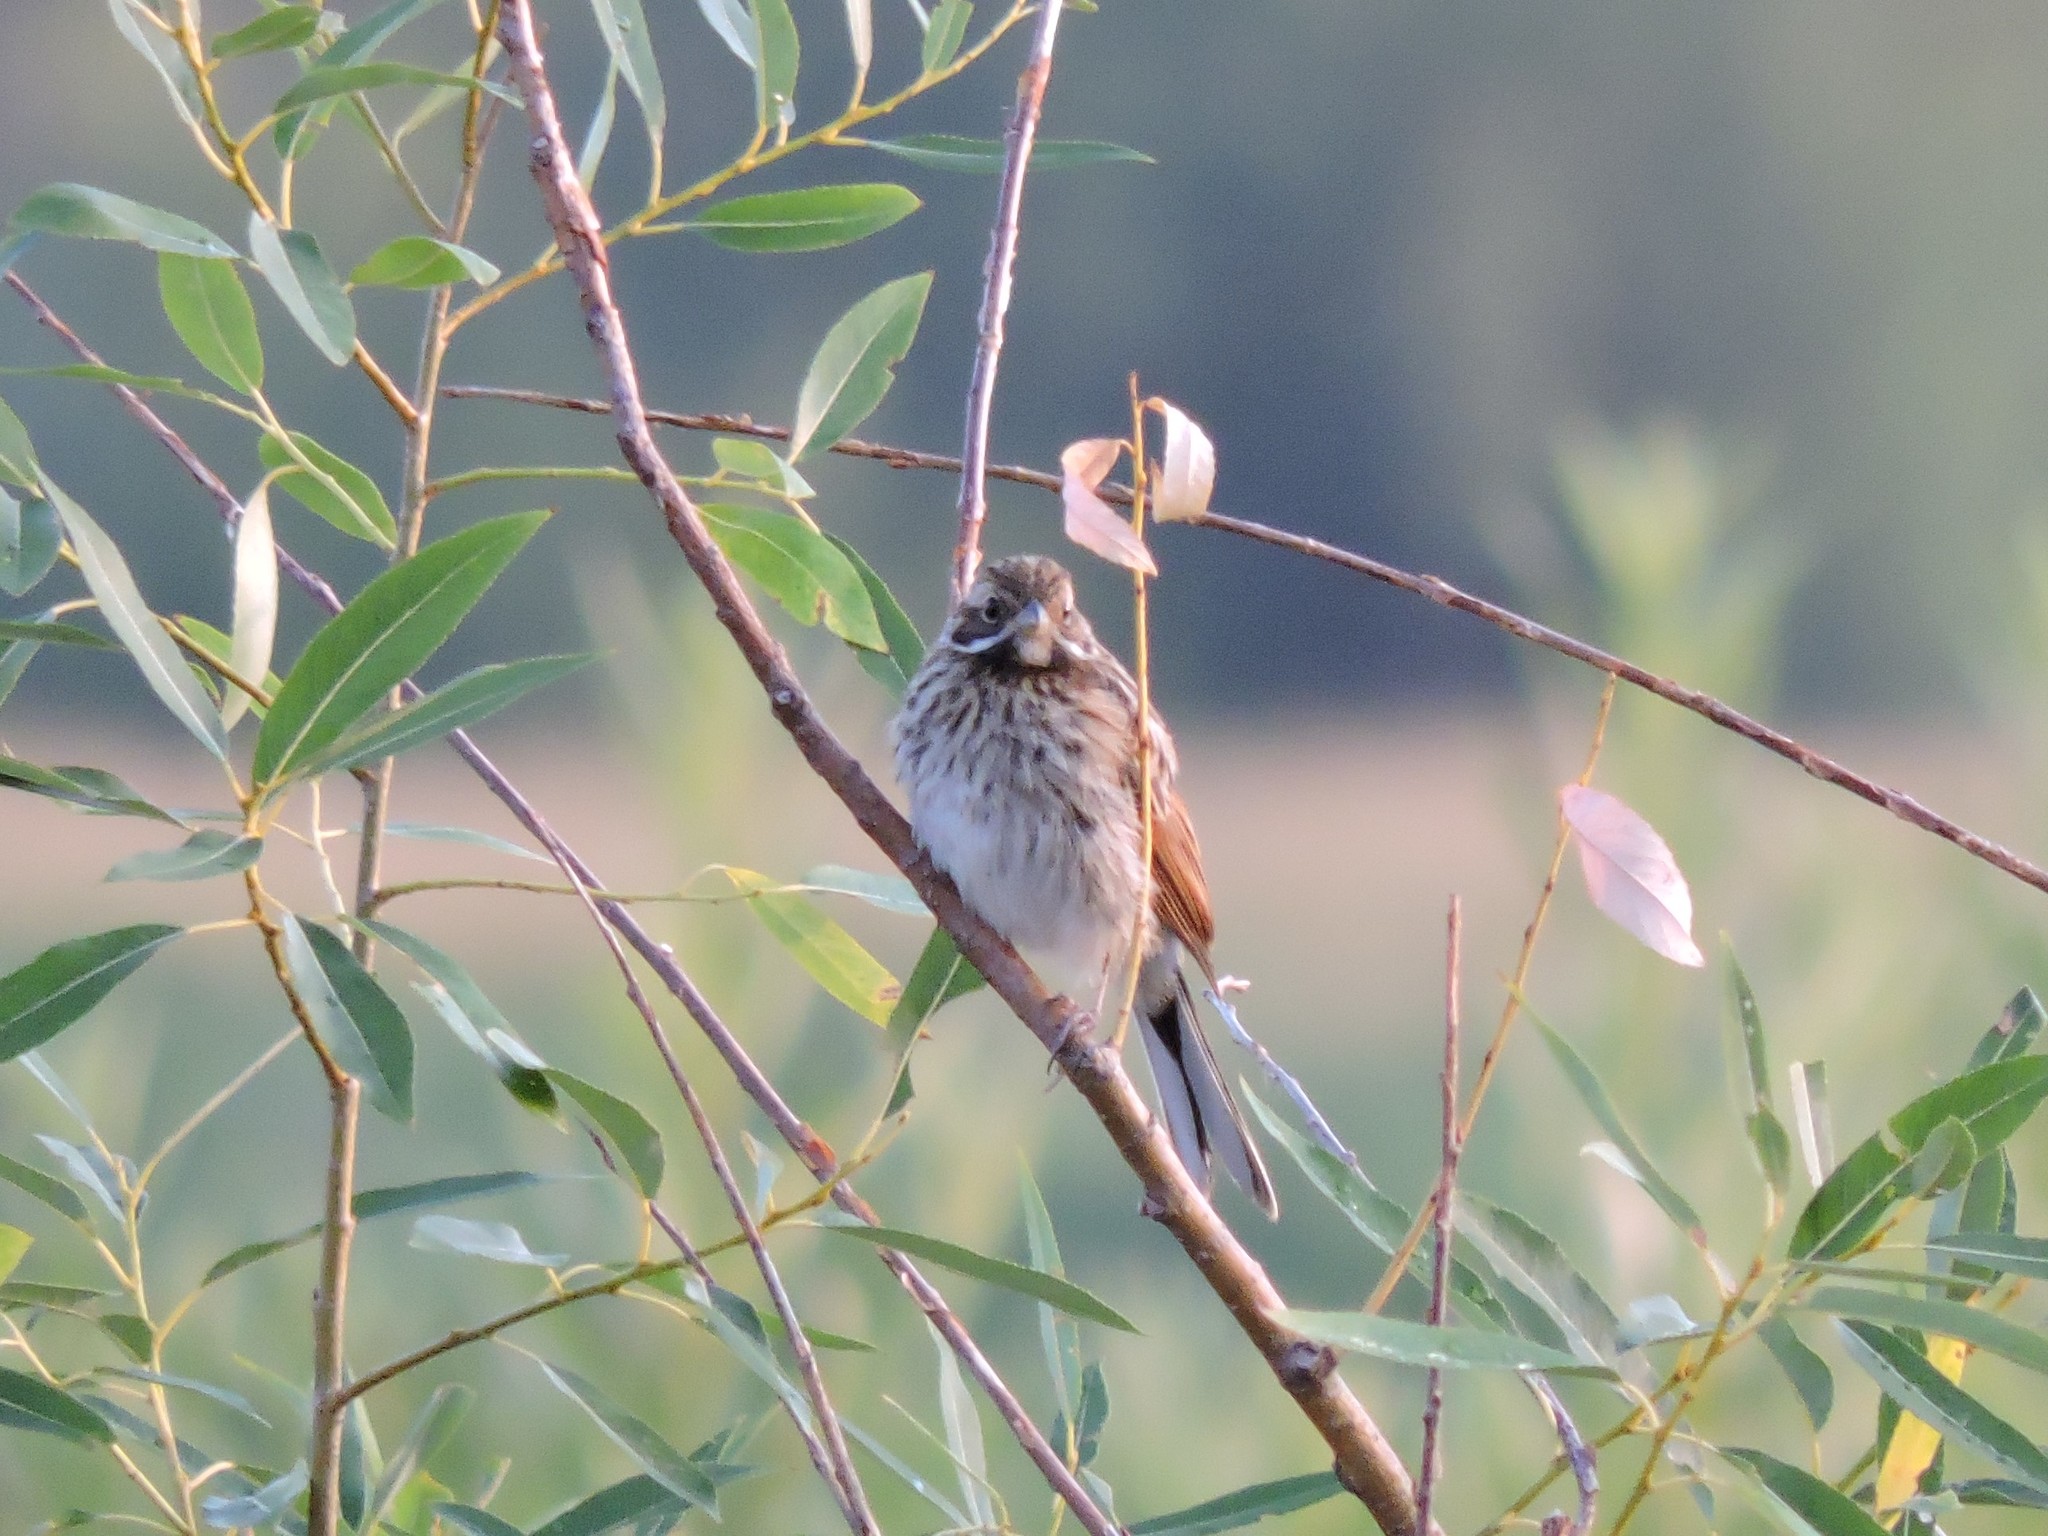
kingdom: Animalia
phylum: Chordata
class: Aves
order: Passeriformes
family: Emberizidae
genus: Emberiza
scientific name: Emberiza schoeniclus
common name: Reed bunting
